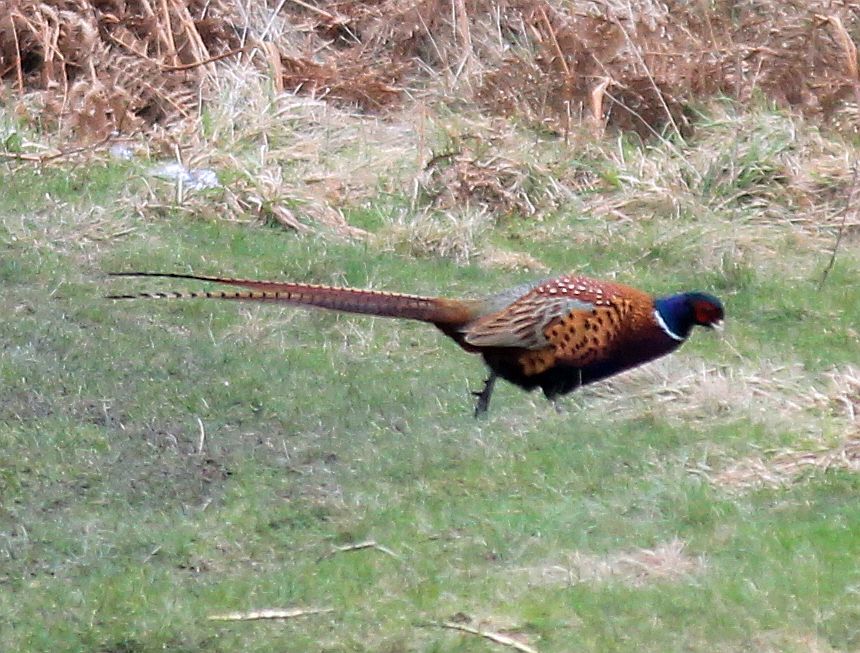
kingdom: Animalia
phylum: Chordata
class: Aves
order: Galliformes
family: Phasianidae
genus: Phasianus
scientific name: Phasianus colchicus
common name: Common pheasant
